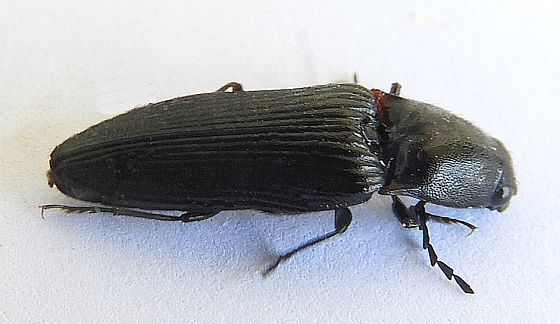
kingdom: Animalia
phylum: Arthropoda
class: Insecta
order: Coleoptera
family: Elateridae
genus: Hemicrepidius
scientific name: Hemicrepidius montanus
